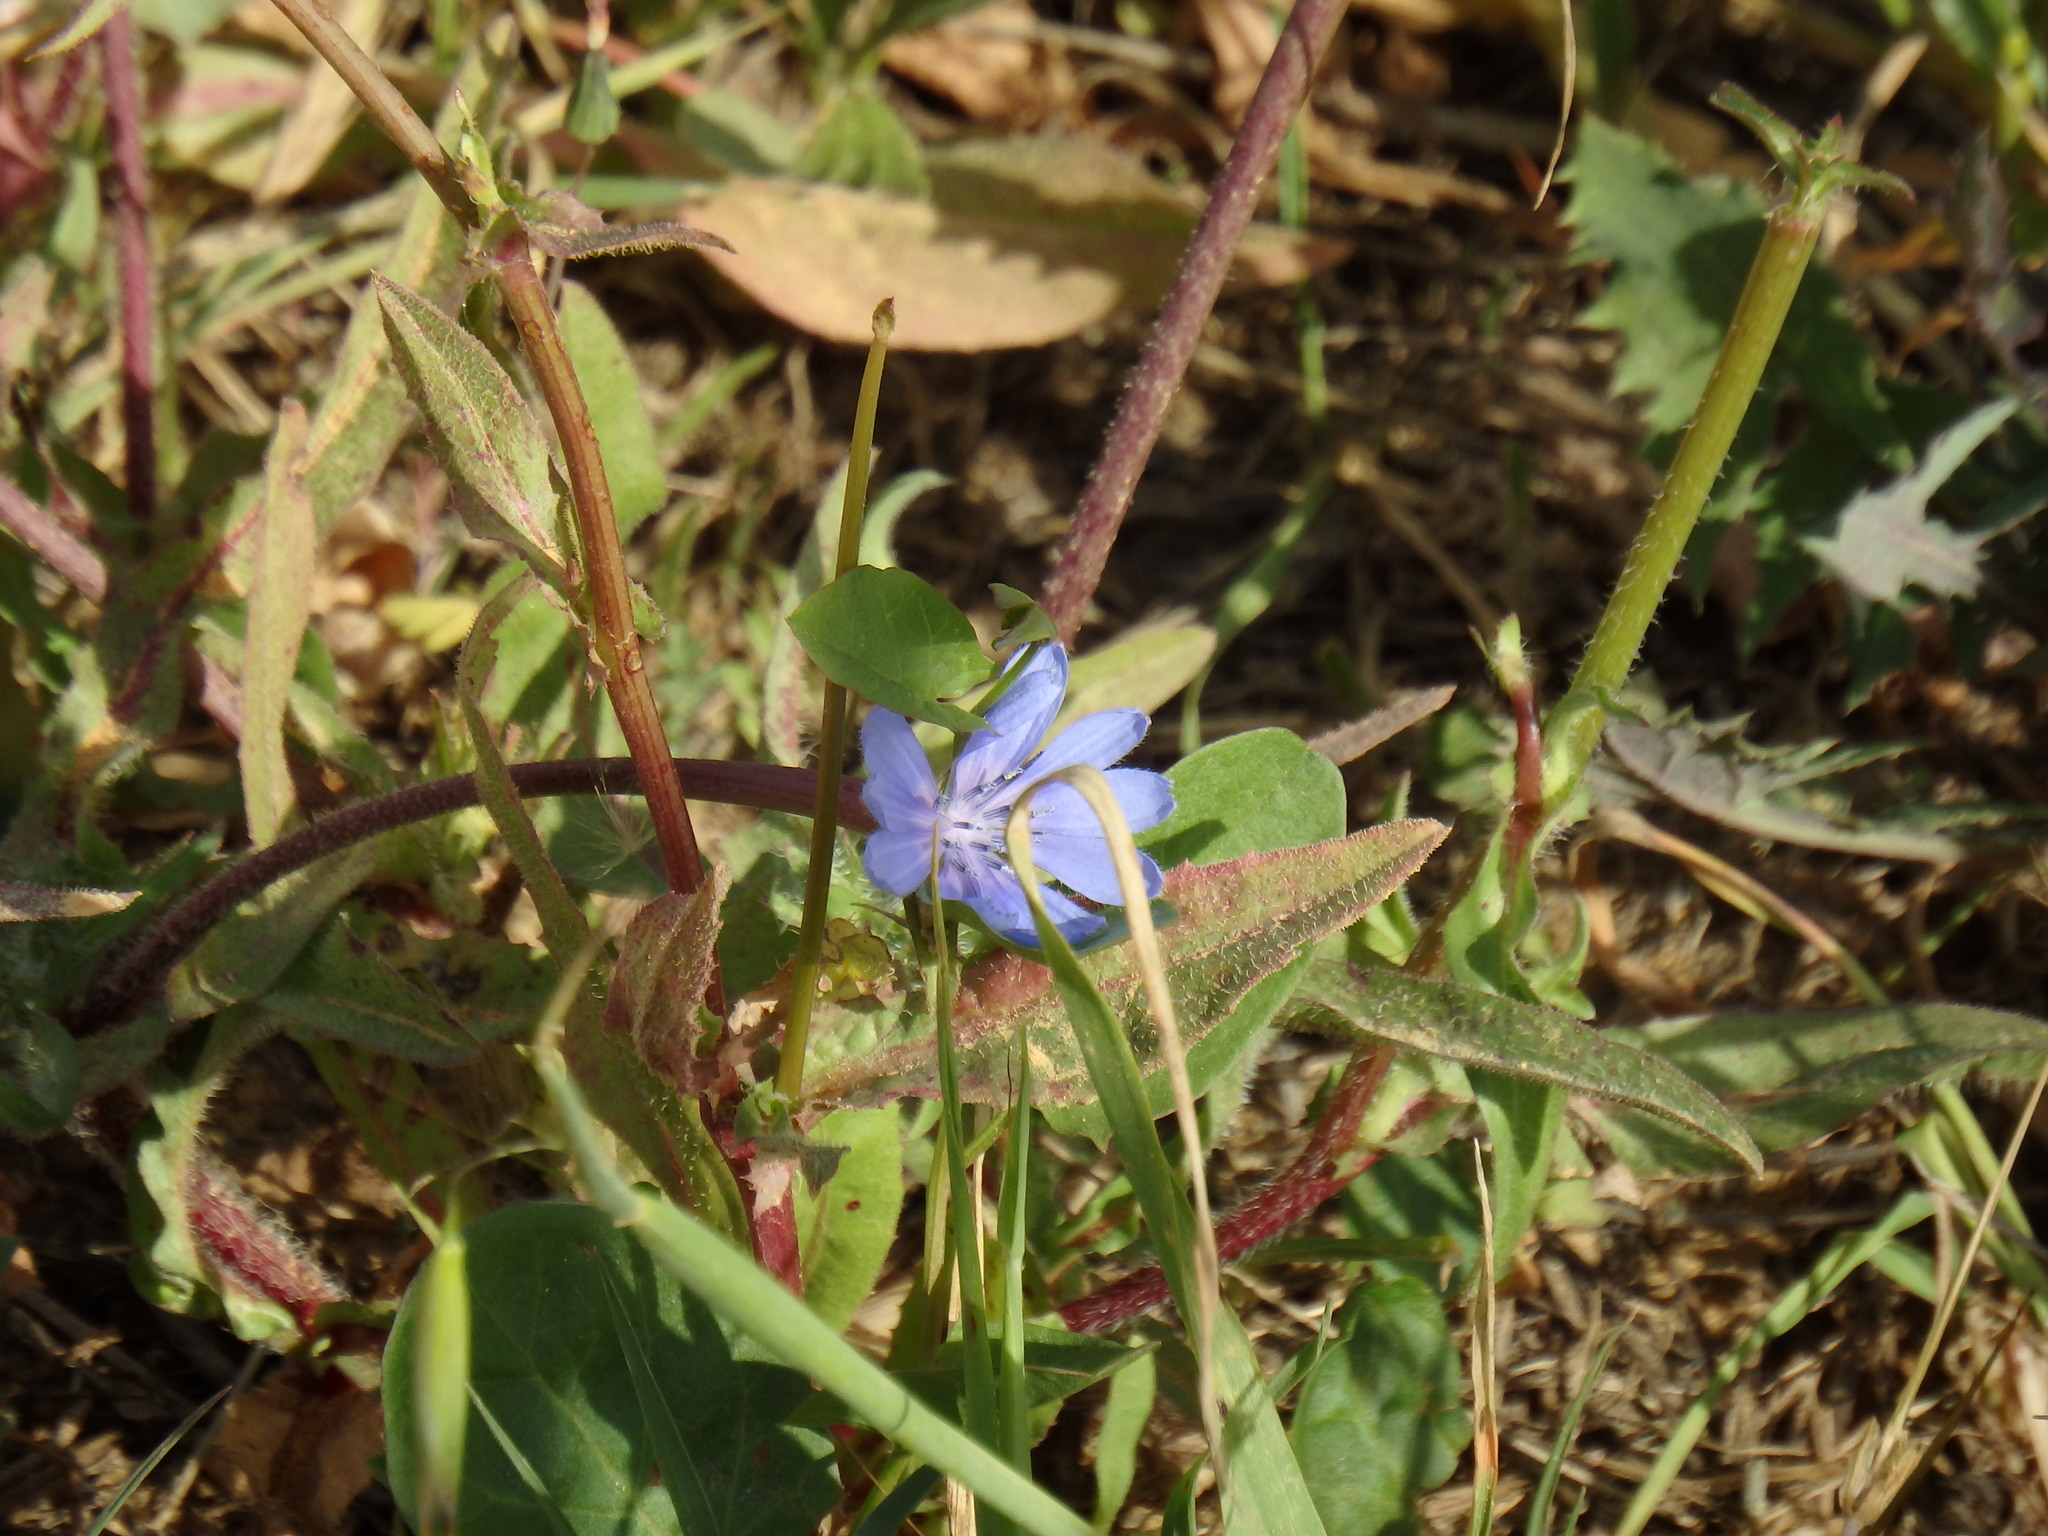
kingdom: Plantae
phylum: Tracheophyta
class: Magnoliopsida
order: Asterales
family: Asteraceae
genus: Cichorium
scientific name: Cichorium intybus
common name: Chicory
